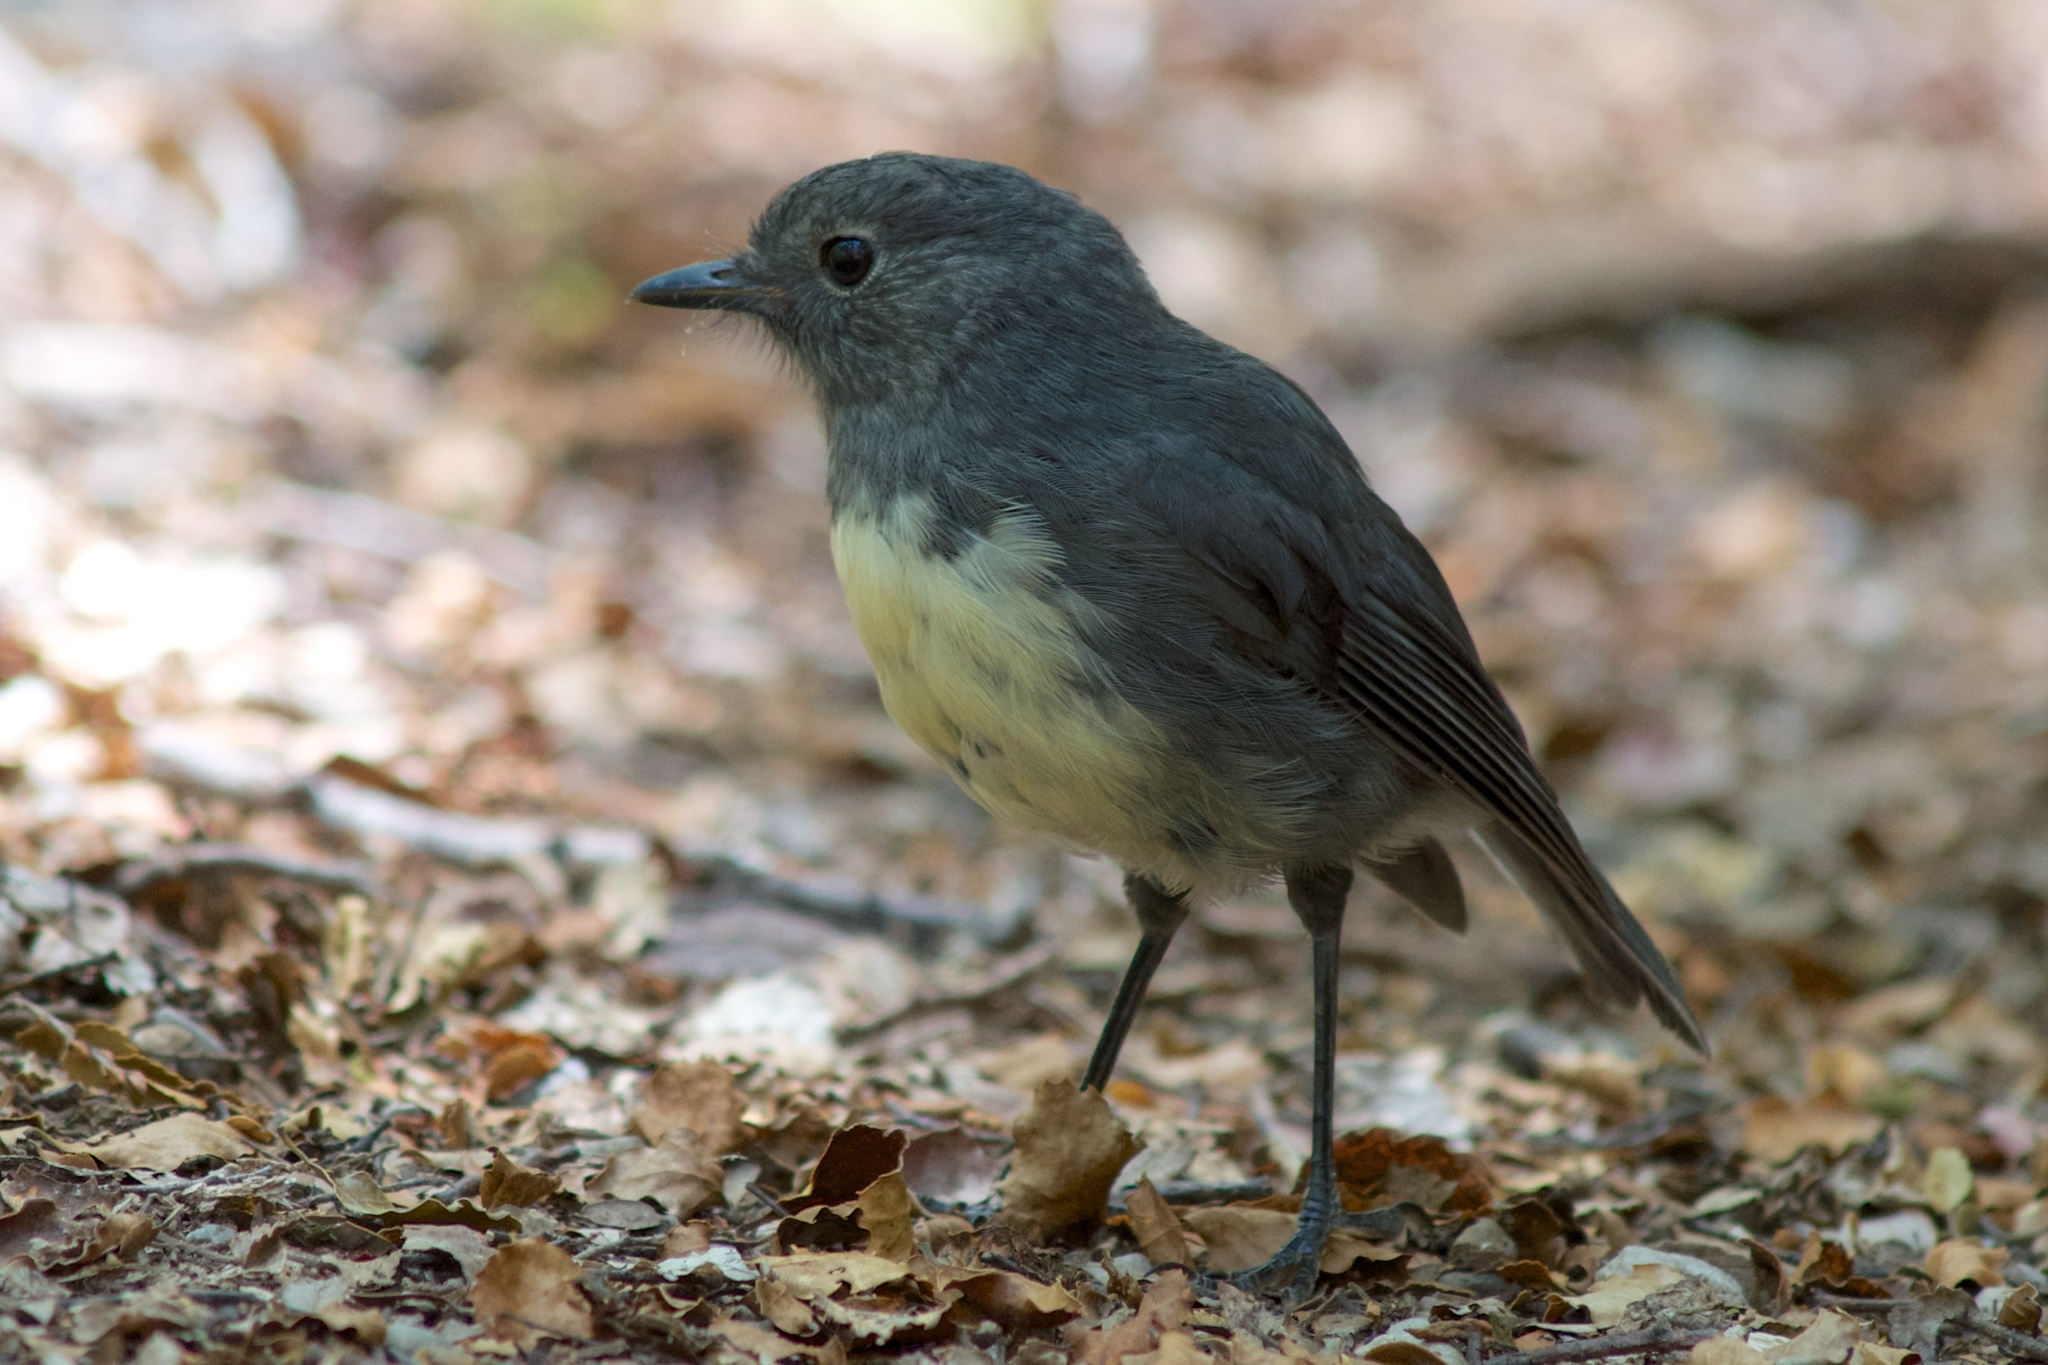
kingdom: Animalia
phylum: Chordata
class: Aves
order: Passeriformes
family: Petroicidae
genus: Petroica
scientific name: Petroica australis
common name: New zealand robin
